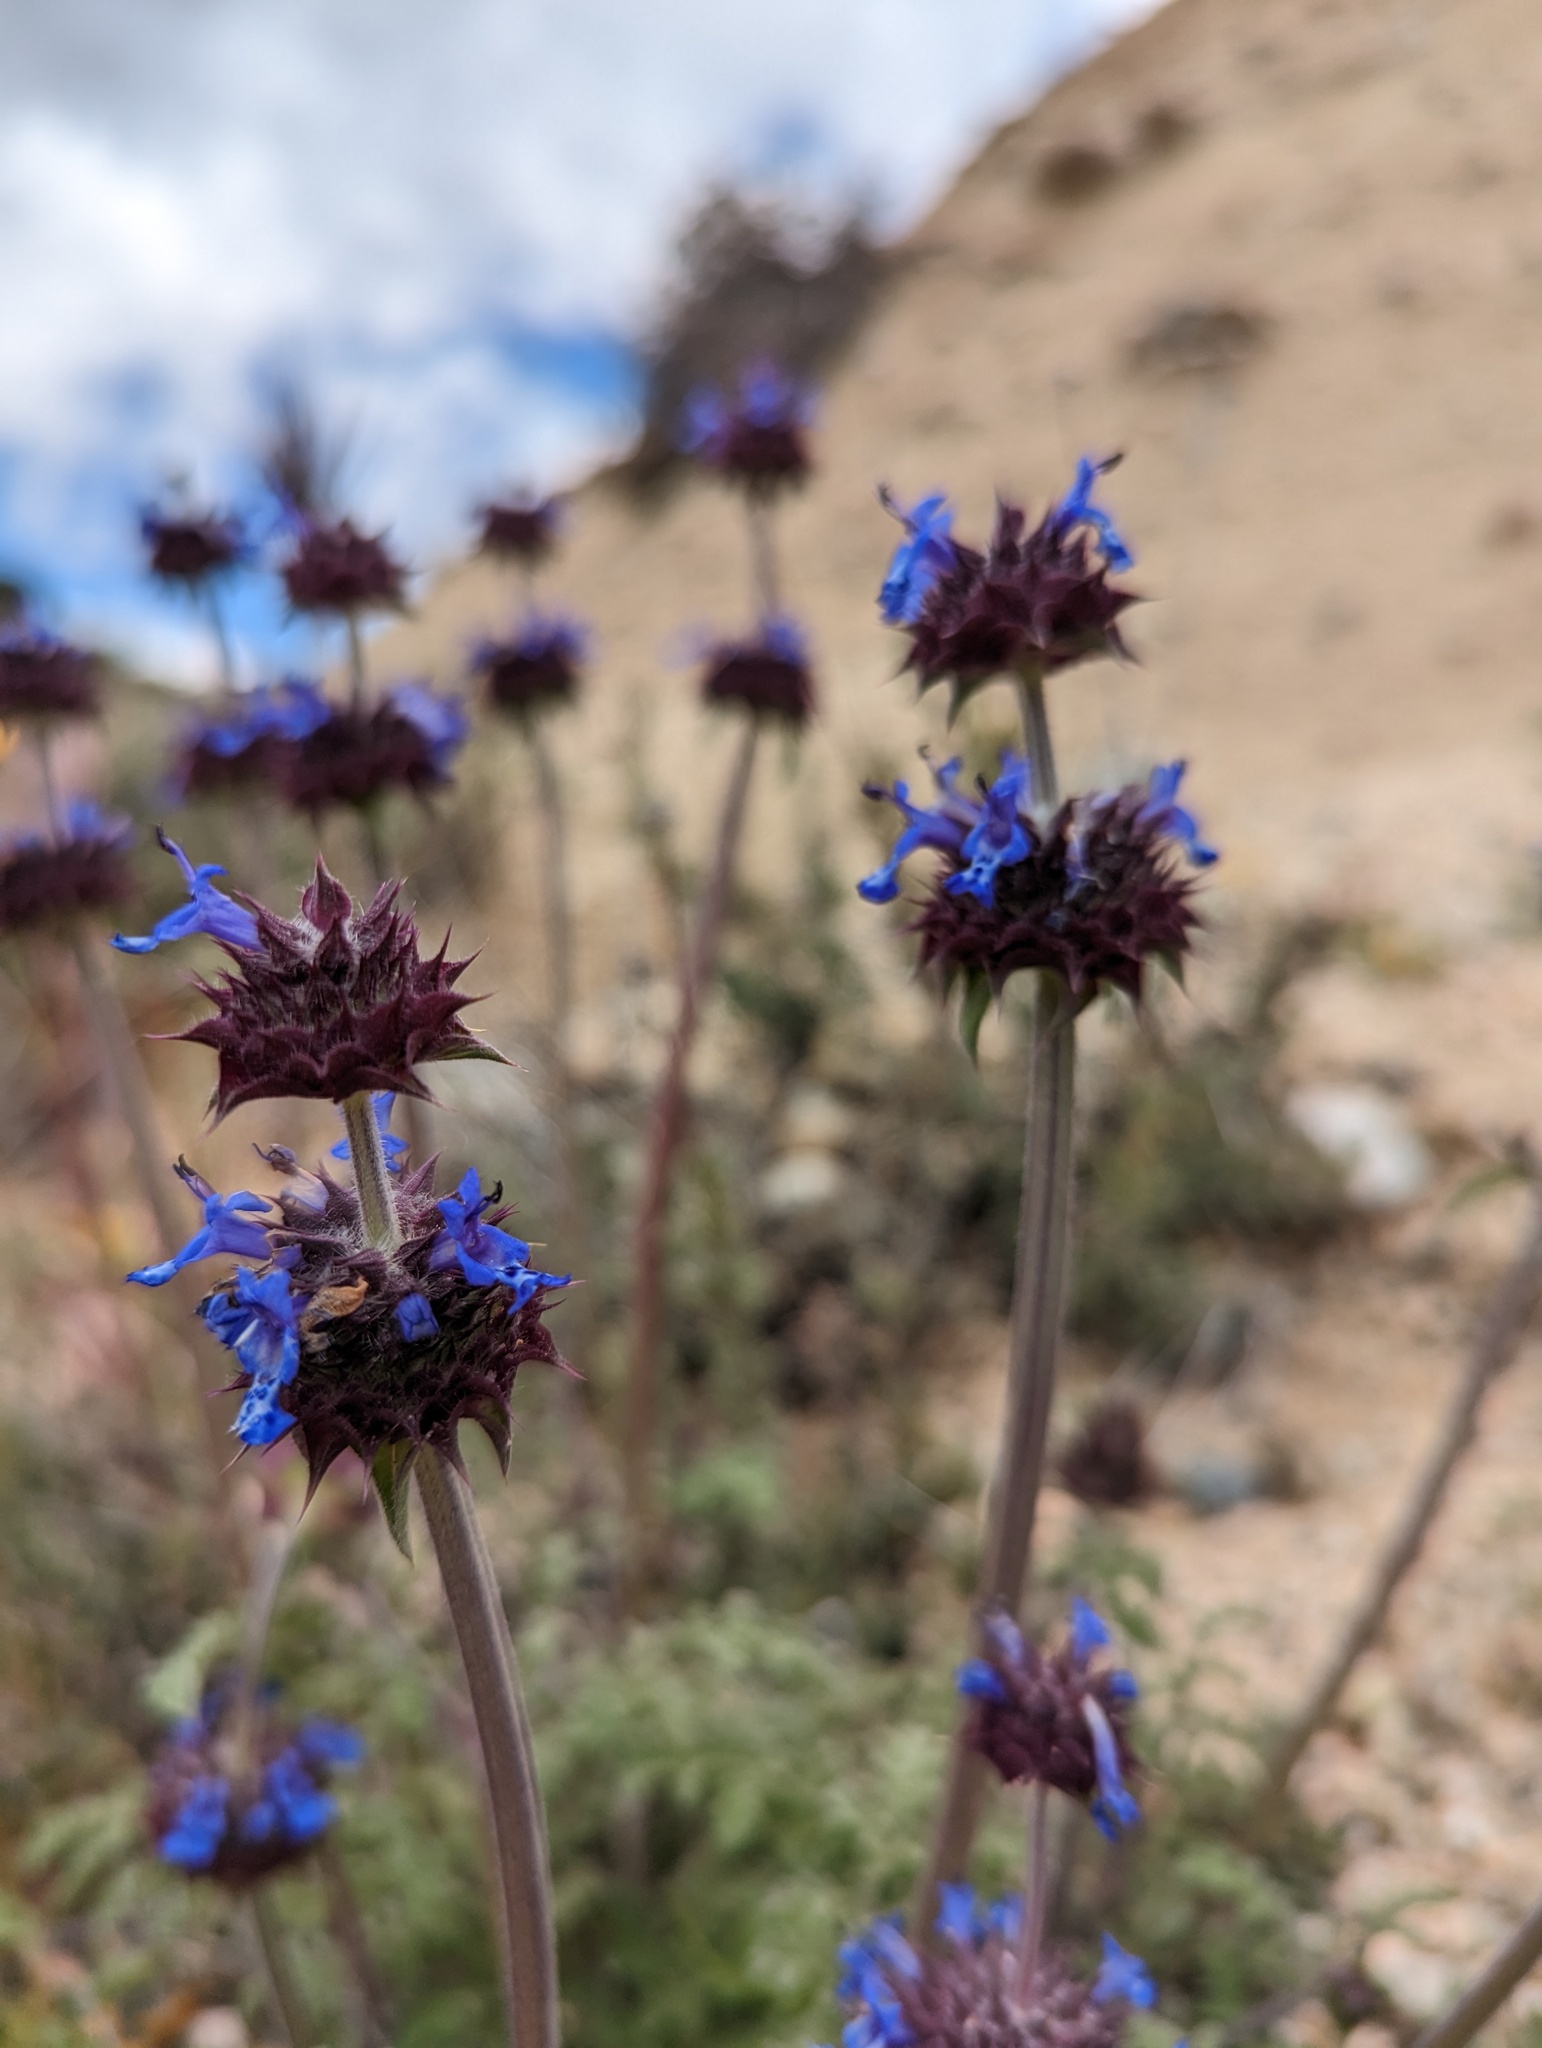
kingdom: Plantae
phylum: Tracheophyta
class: Magnoliopsida
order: Lamiales
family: Lamiaceae
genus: Salvia
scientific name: Salvia columbariae
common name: Chia
